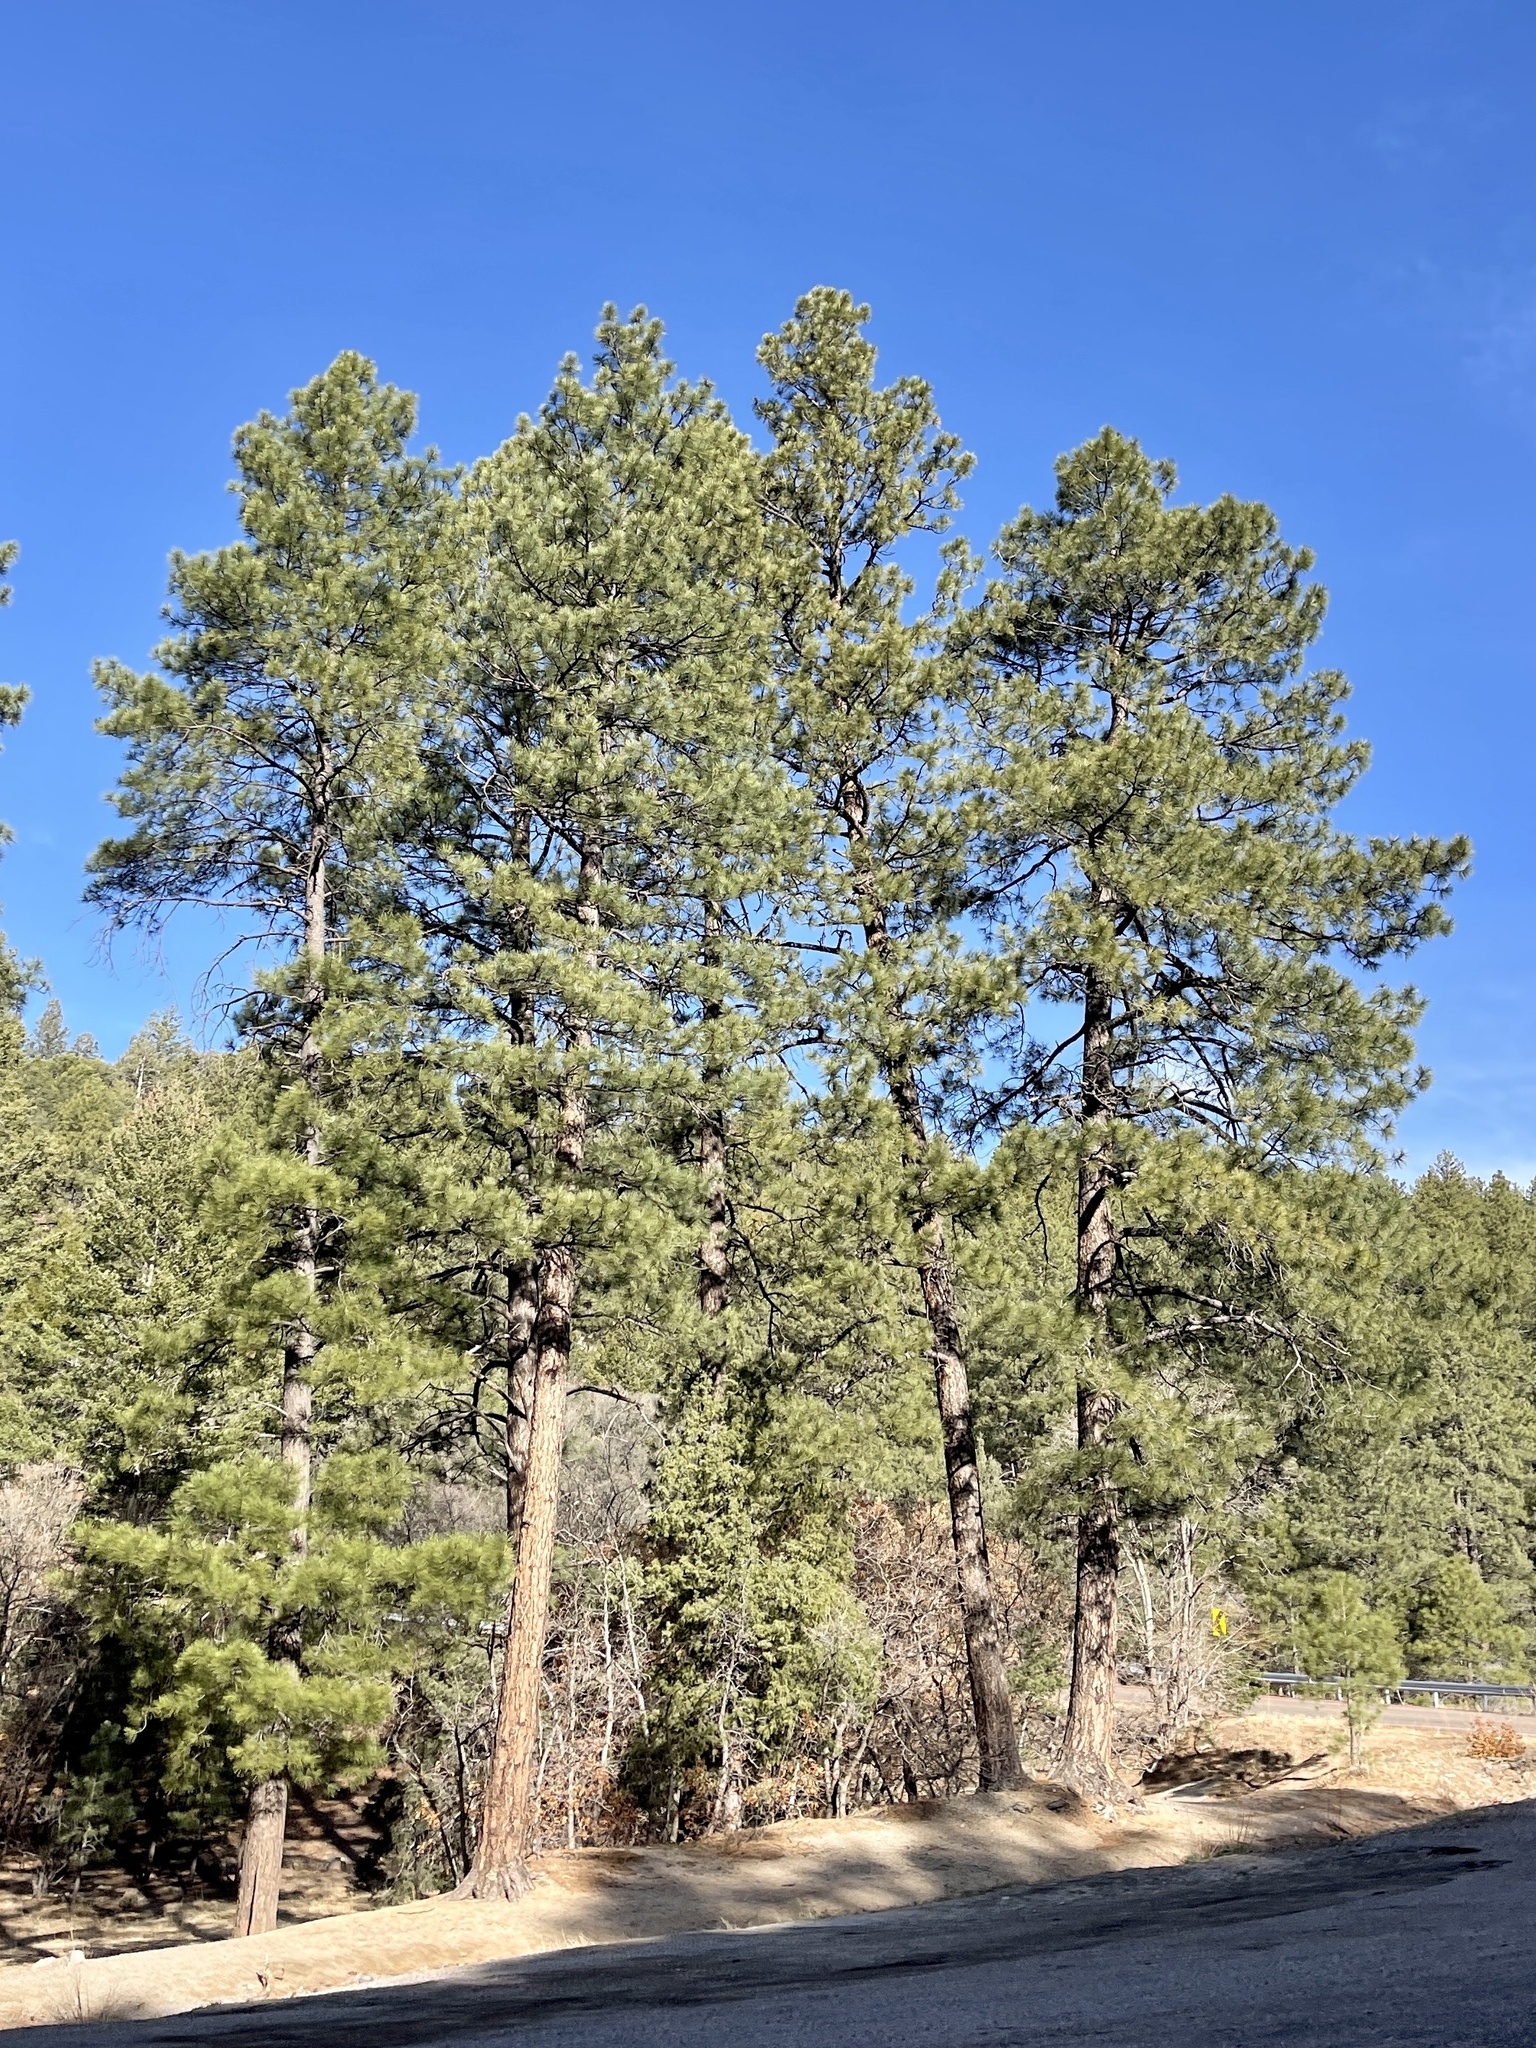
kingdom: Plantae
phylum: Tracheophyta
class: Pinopsida
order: Pinales
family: Pinaceae
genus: Pinus
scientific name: Pinus ponderosa
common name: Western yellow-pine
